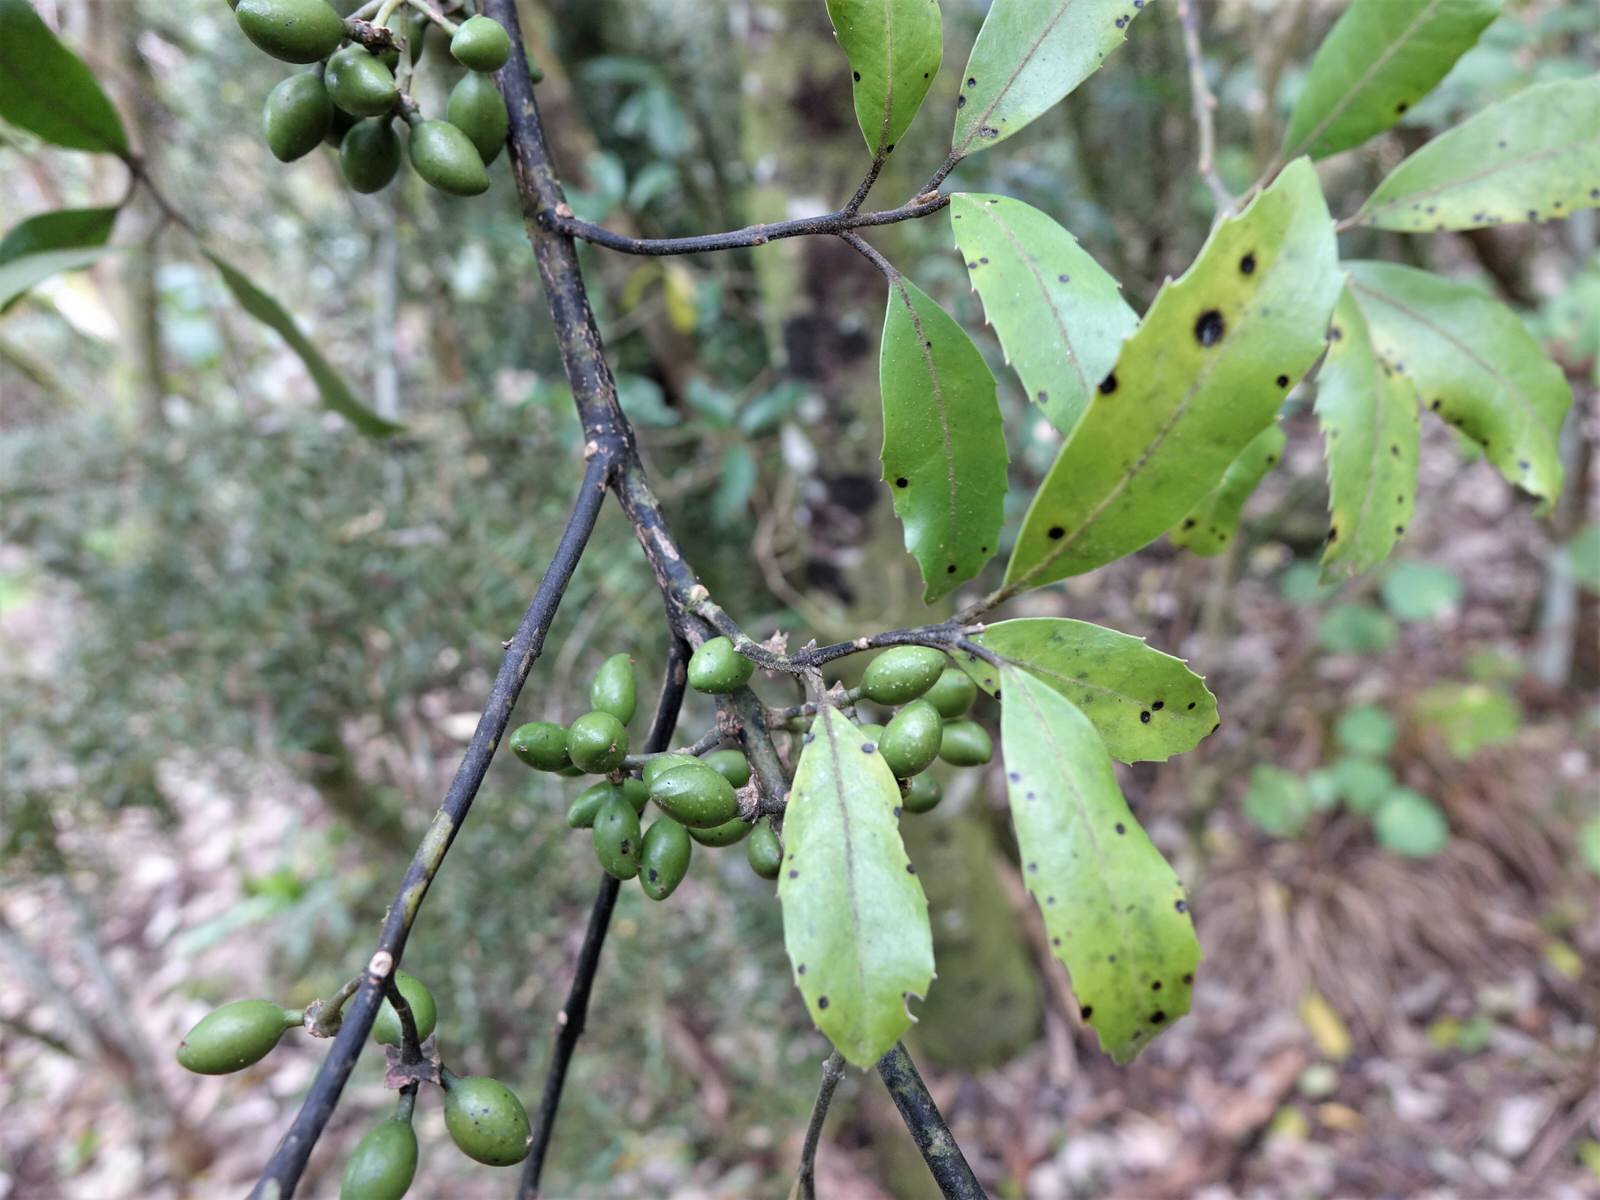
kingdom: Plantae
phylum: Tracheophyta
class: Magnoliopsida
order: Laurales
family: Monimiaceae
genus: Hedycarya
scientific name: Hedycarya arborea
